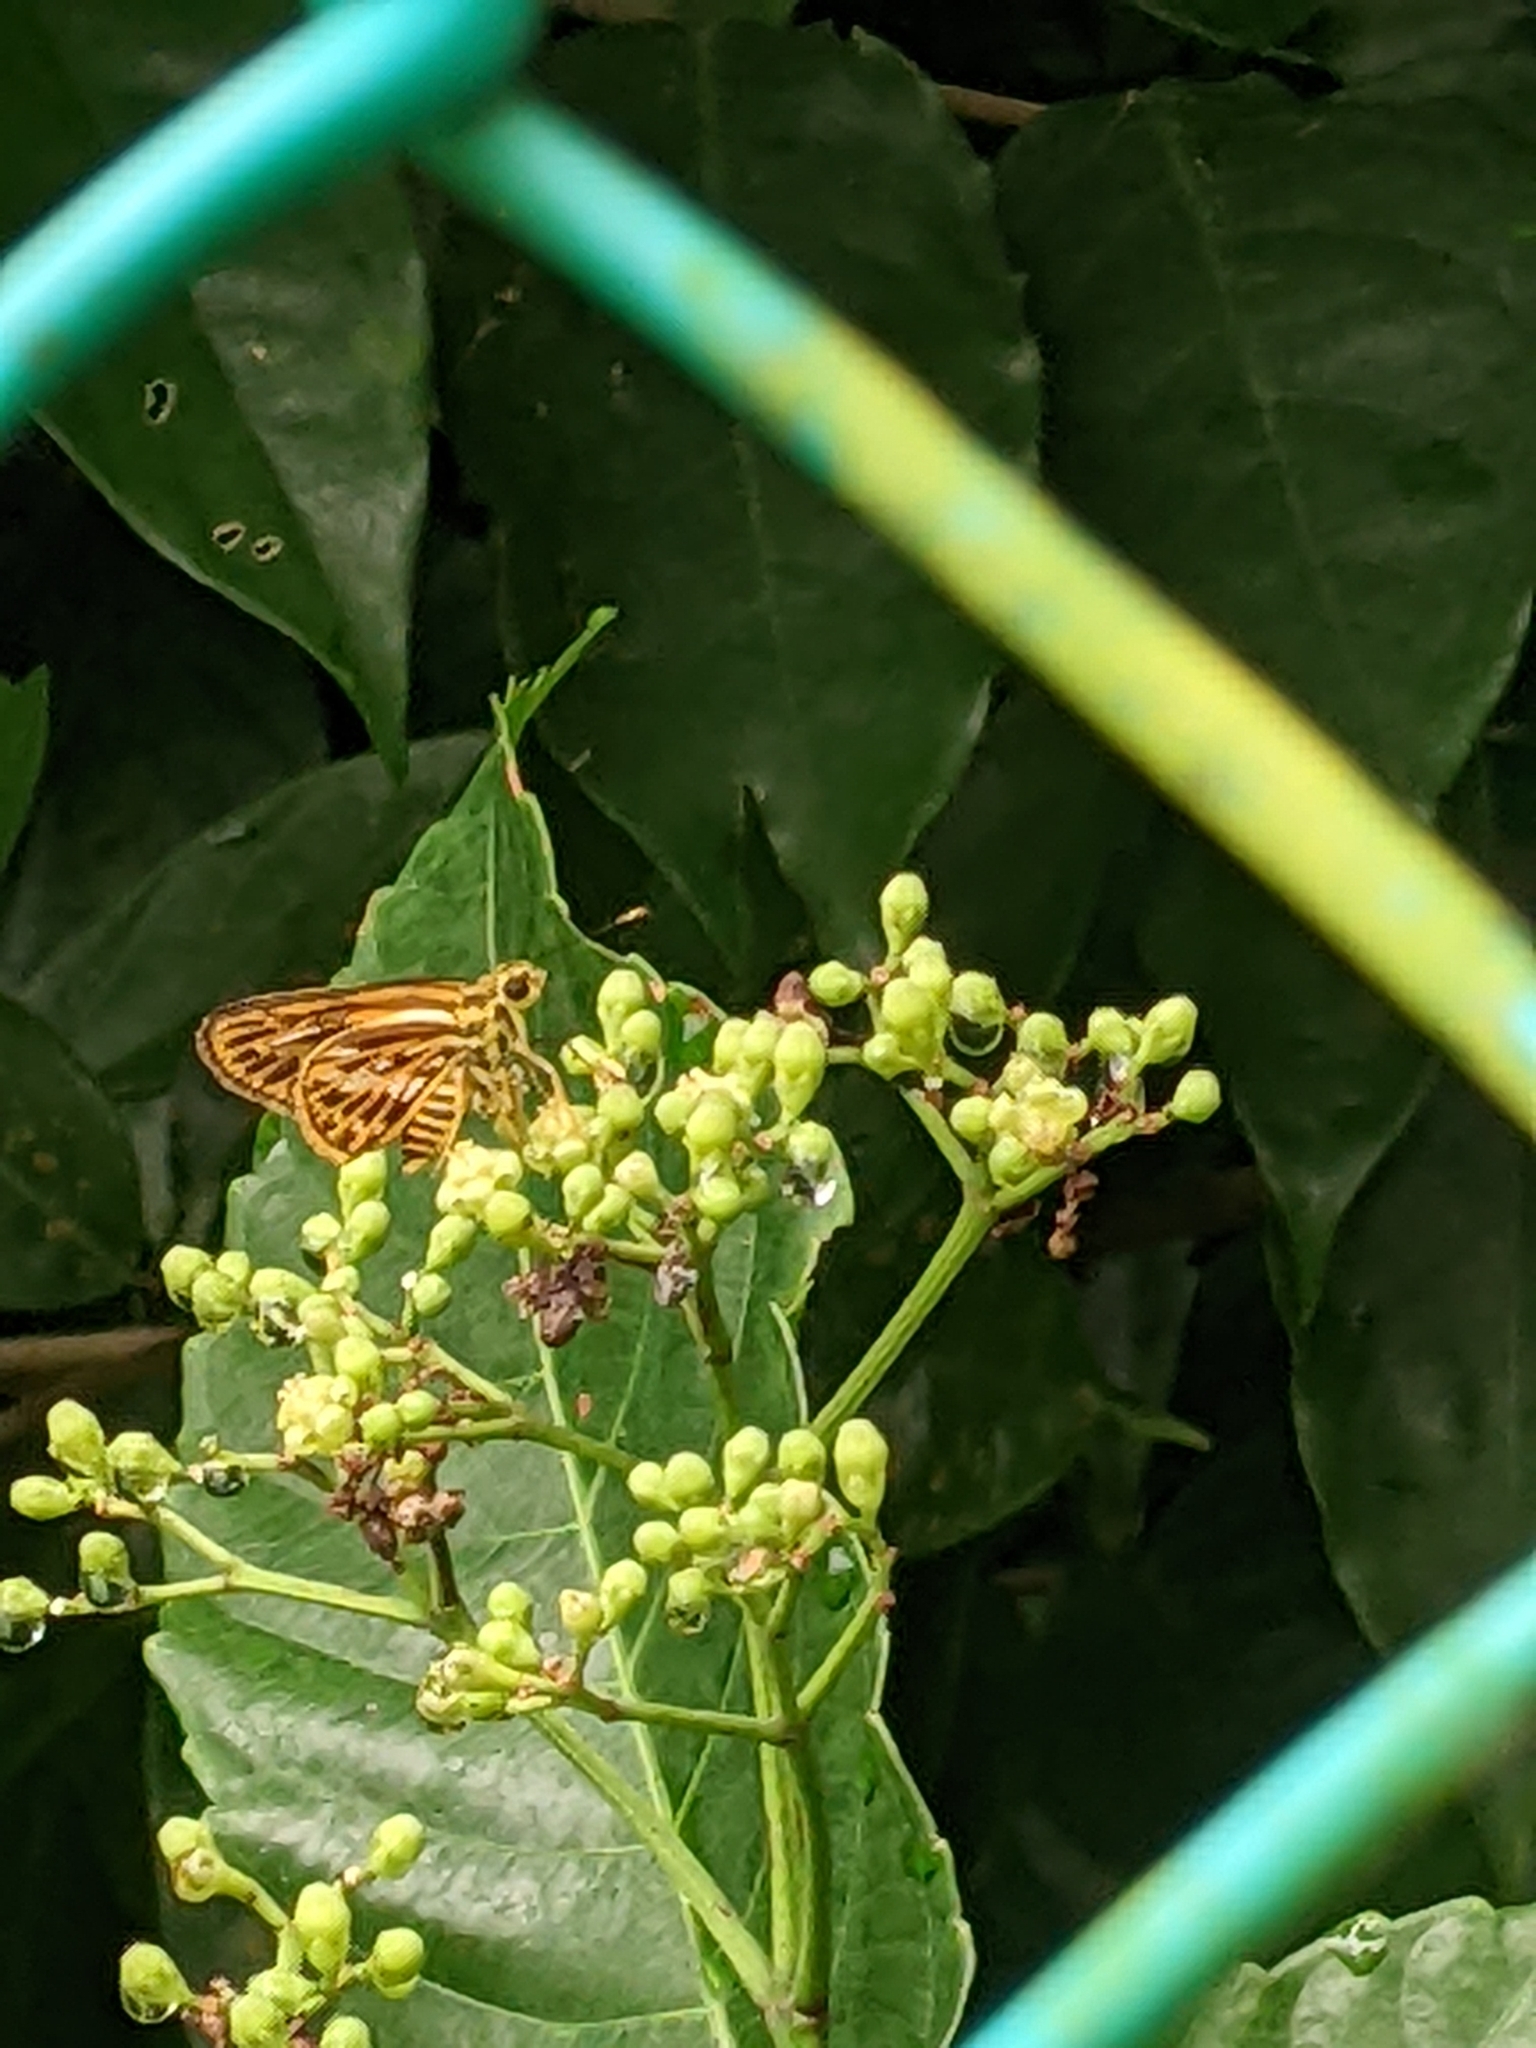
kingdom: Animalia
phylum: Arthropoda
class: Insecta
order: Lepidoptera
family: Hesperiidae
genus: Pyroneura
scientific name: Pyroneura latoia
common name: Yellow vein lancer
